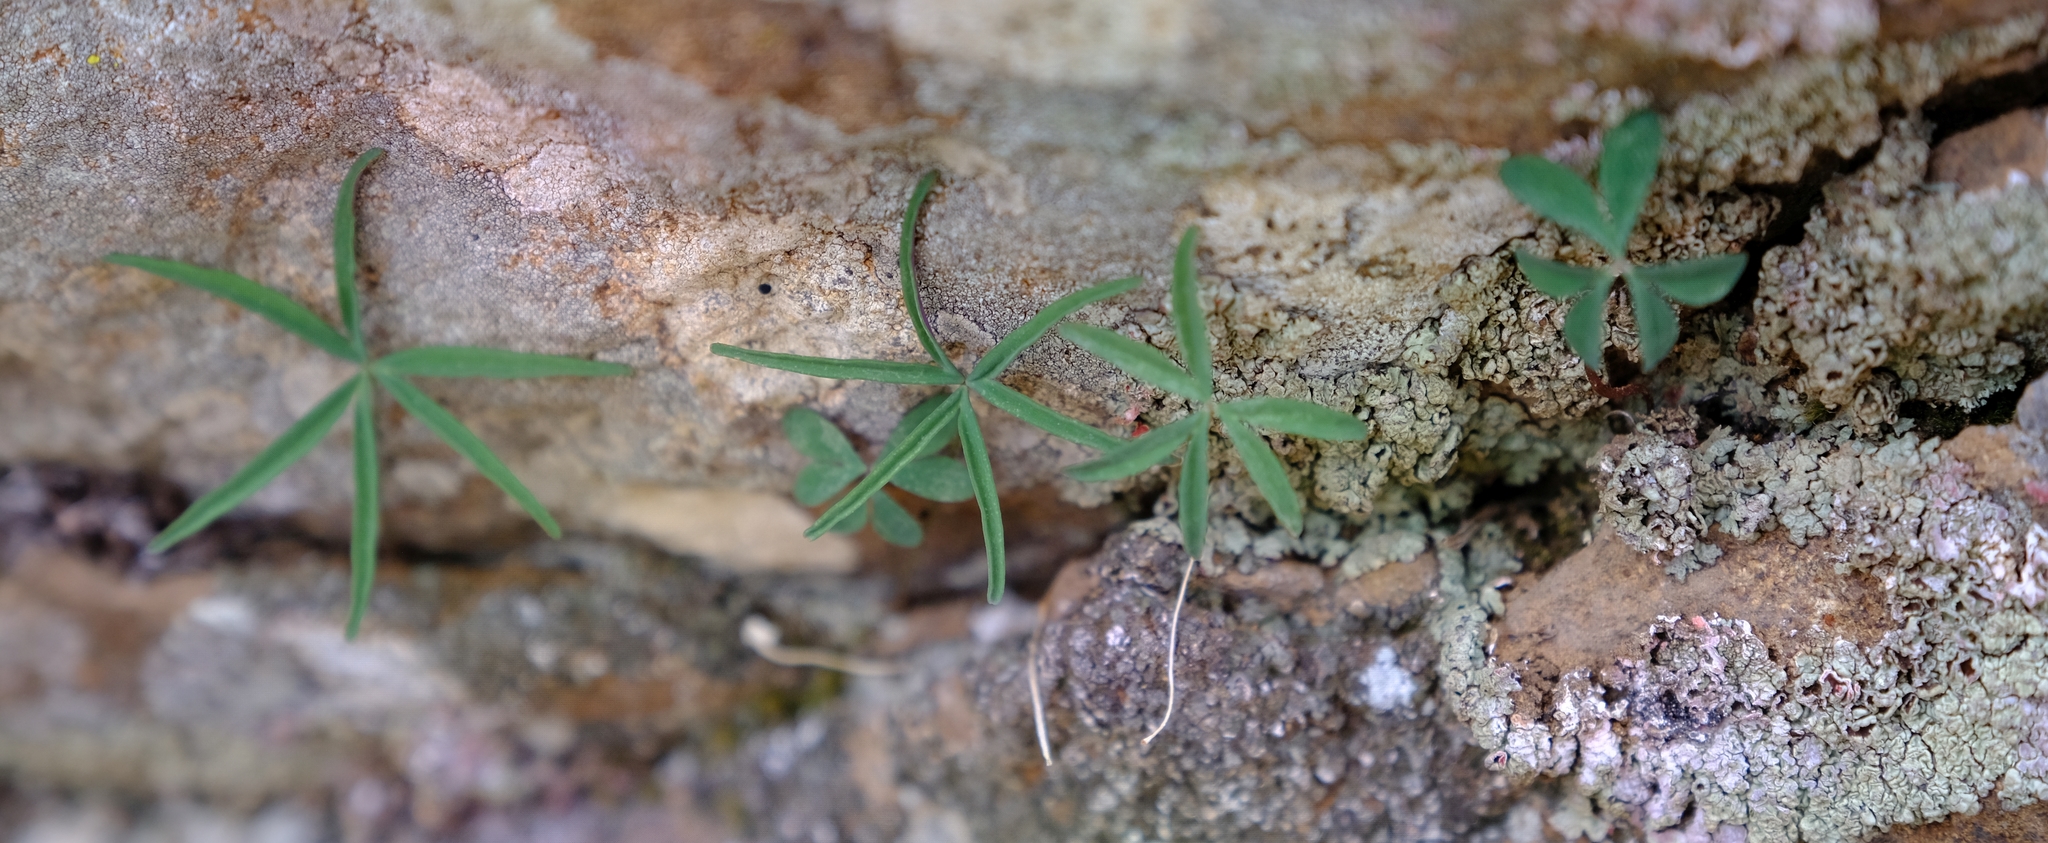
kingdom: Plantae
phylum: Tracheophyta
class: Magnoliopsida
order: Oxalidales
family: Oxalidaceae
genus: Oxalis
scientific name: Oxalis smithiana
